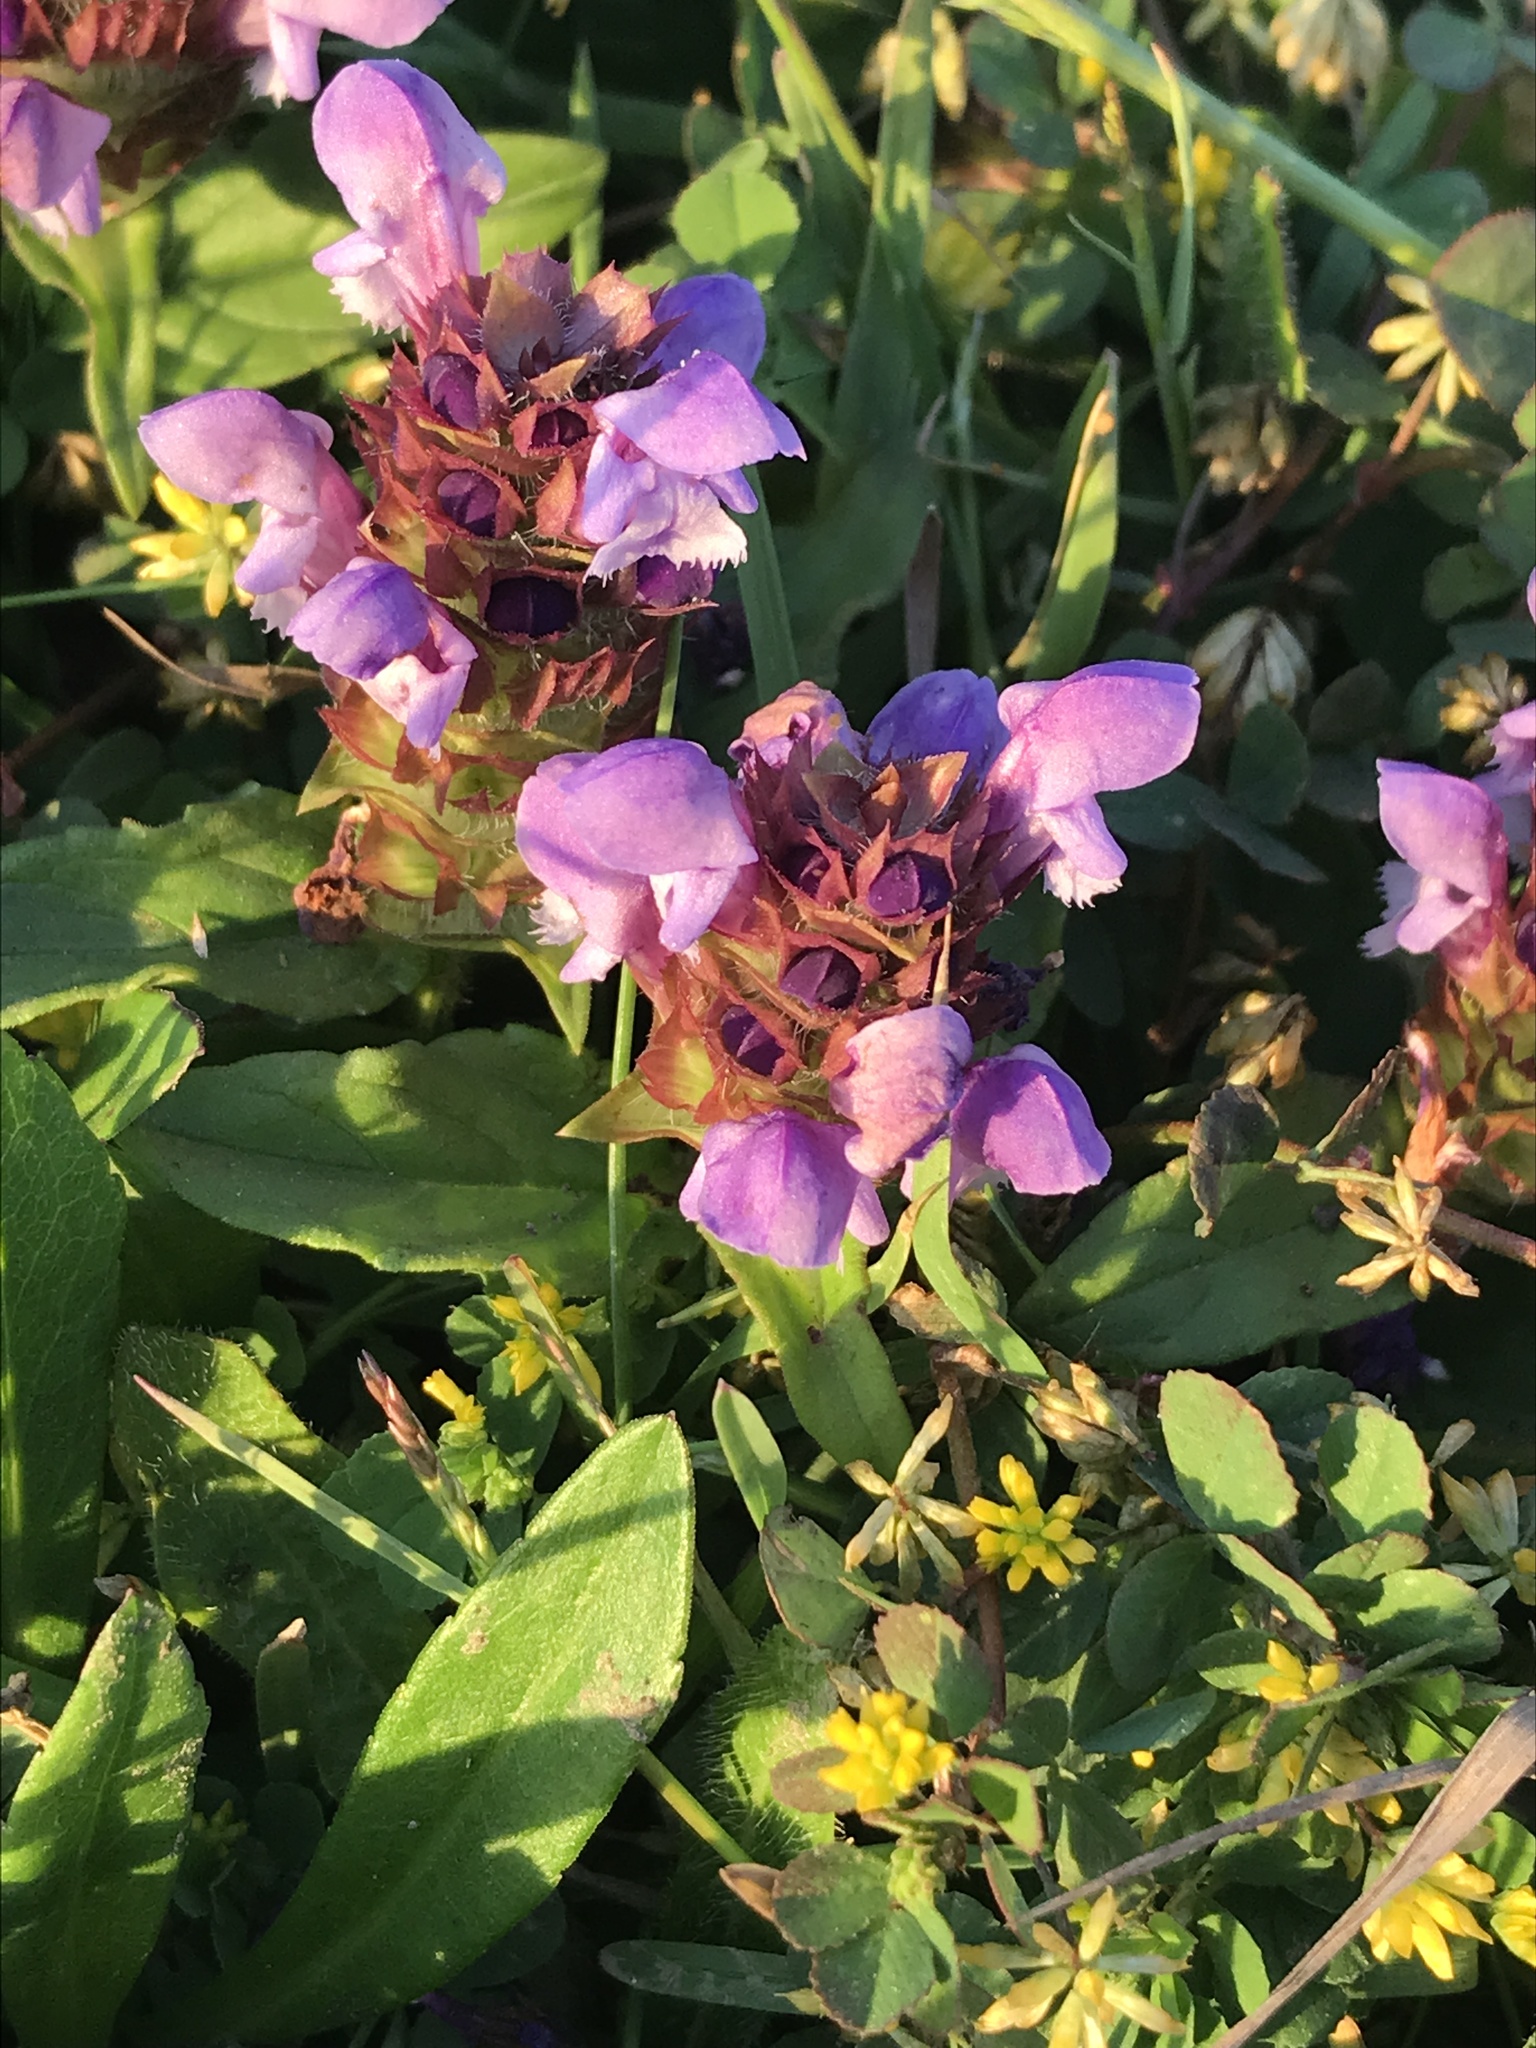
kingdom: Plantae
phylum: Tracheophyta
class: Magnoliopsida
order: Lamiales
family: Lamiaceae
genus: Prunella
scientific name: Prunella vulgaris
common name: Heal-all
